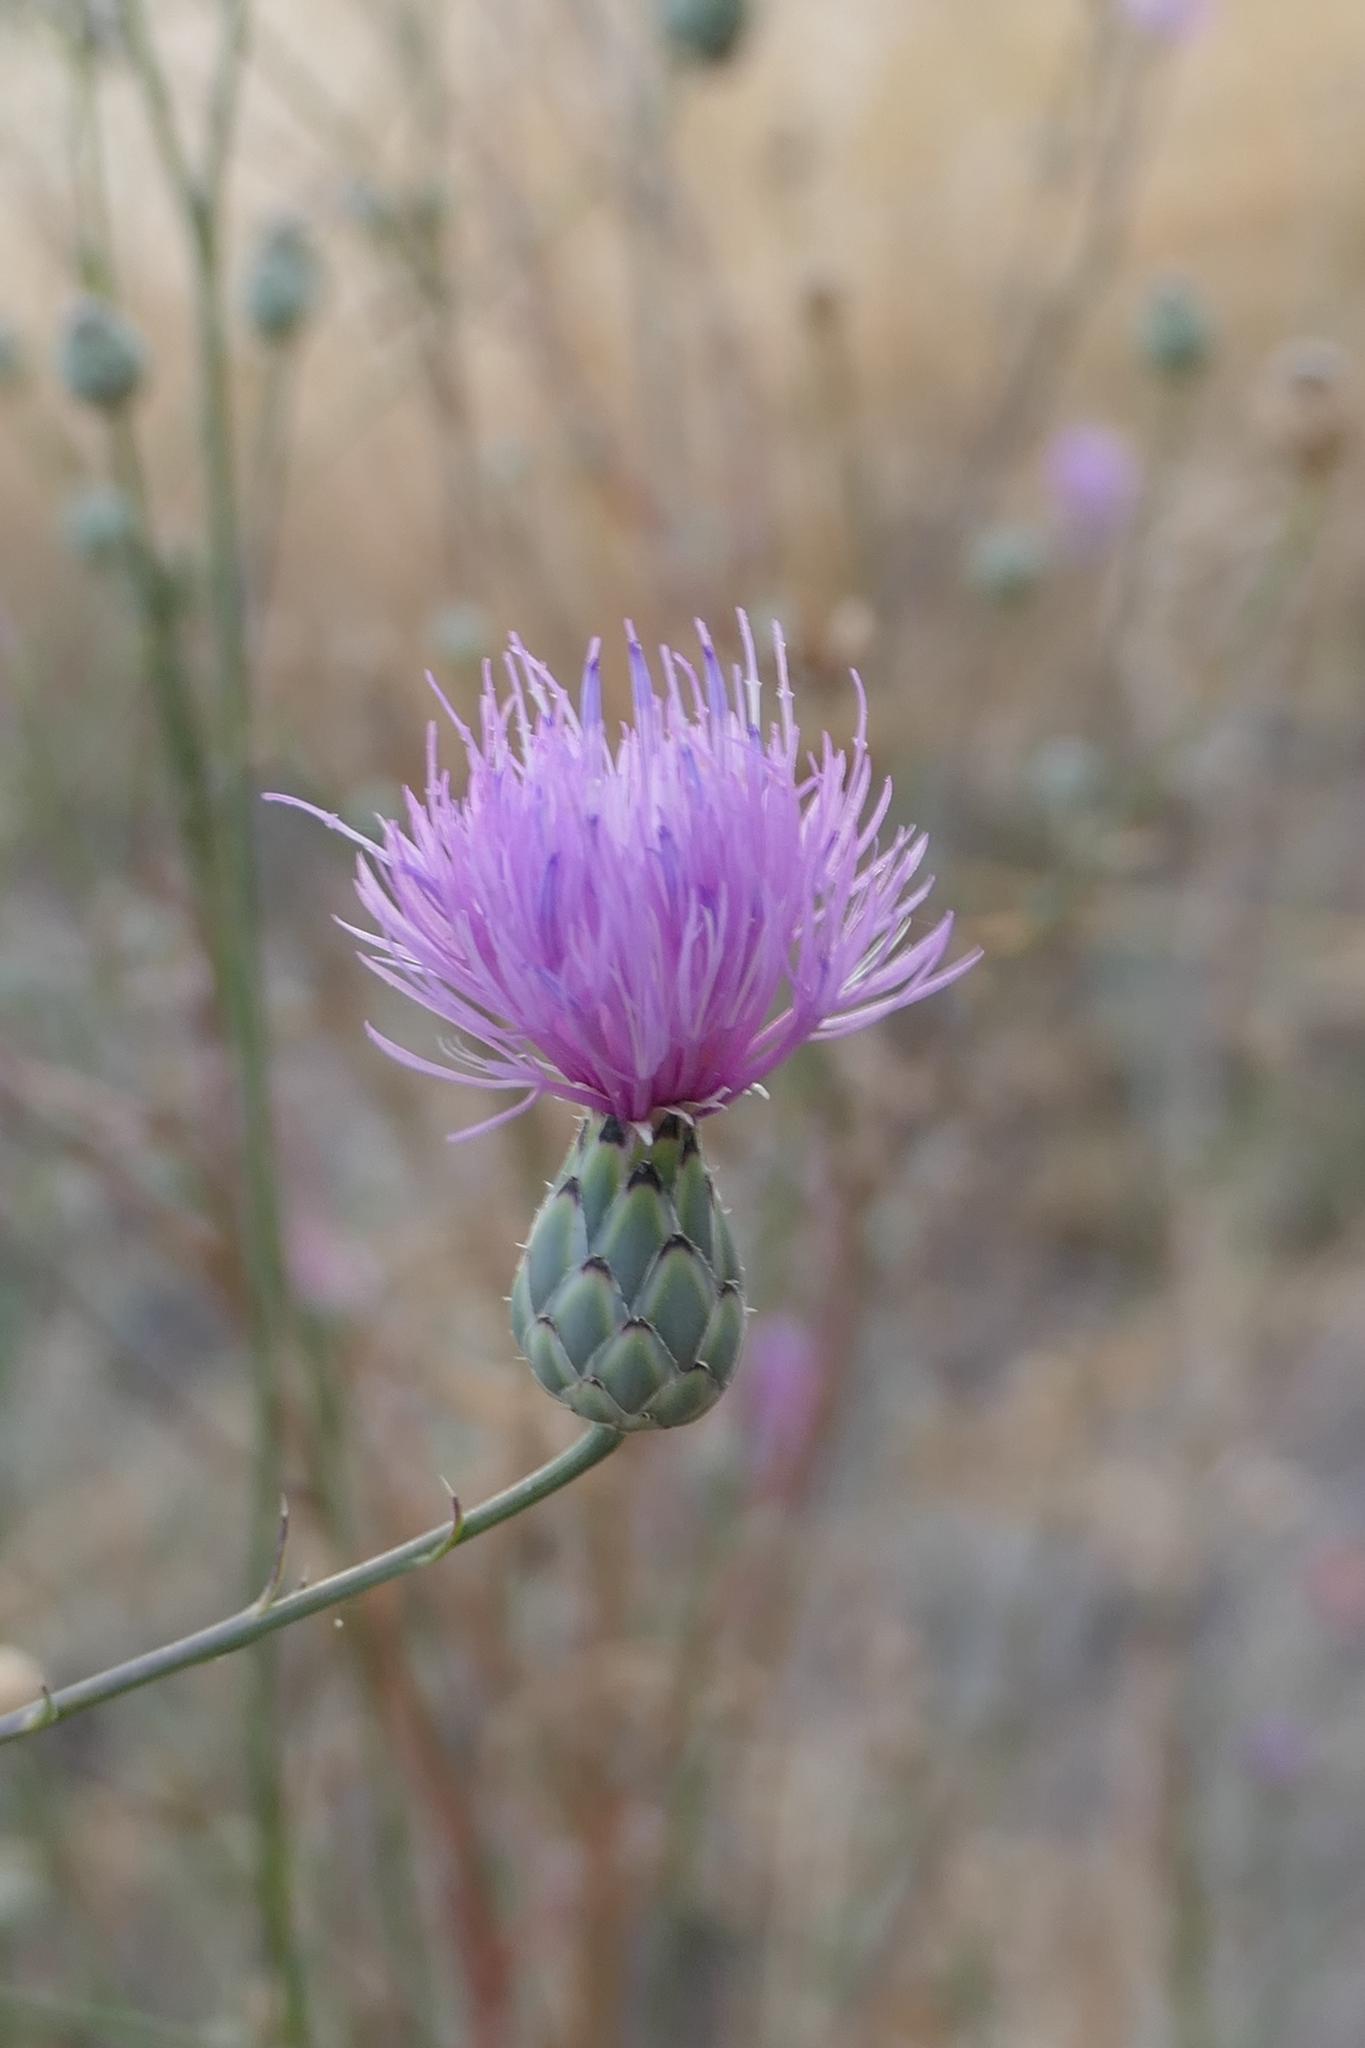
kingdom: Plantae
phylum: Tracheophyta
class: Magnoliopsida
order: Asterales
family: Asteraceae
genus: Mantisalca
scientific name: Mantisalca salmantica
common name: Dagger flower
